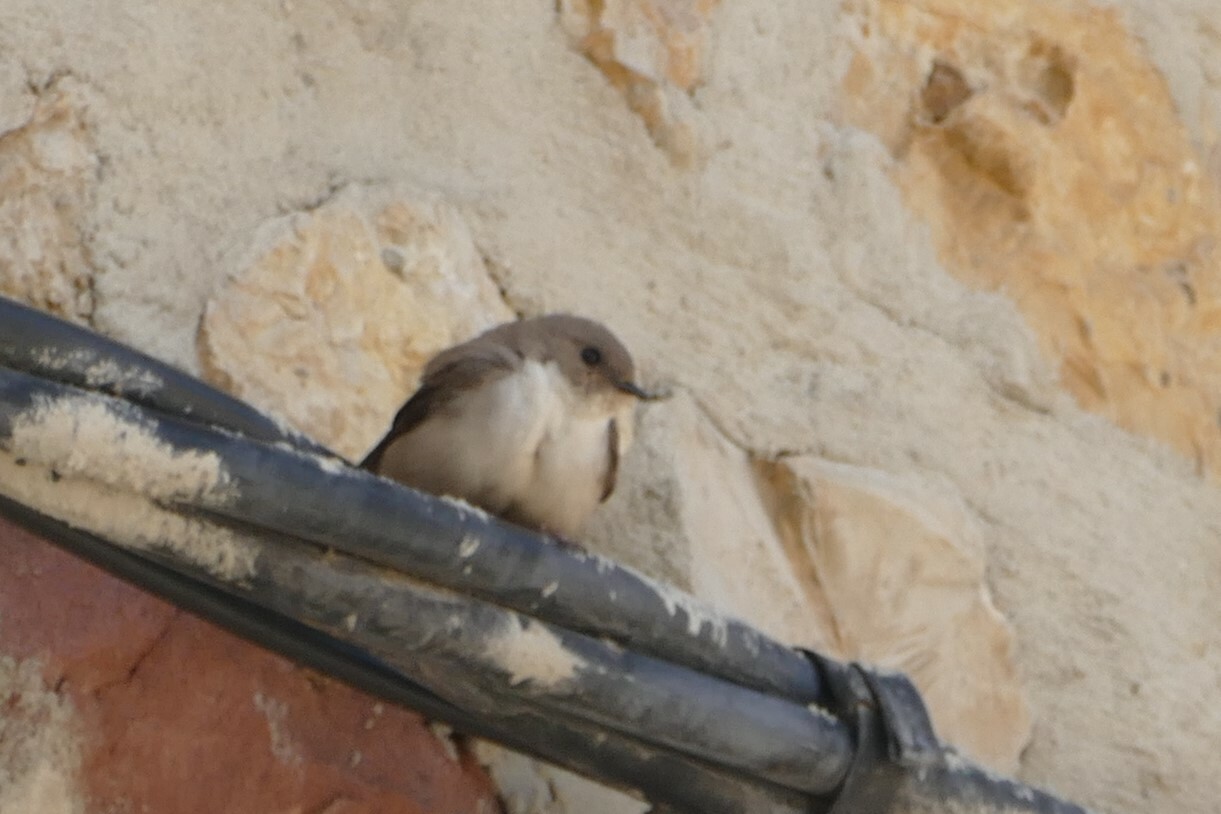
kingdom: Animalia
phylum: Chordata
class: Aves
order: Passeriformes
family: Hirundinidae
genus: Ptyonoprogne
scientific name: Ptyonoprogne rupestris
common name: Eurasian crag martin
